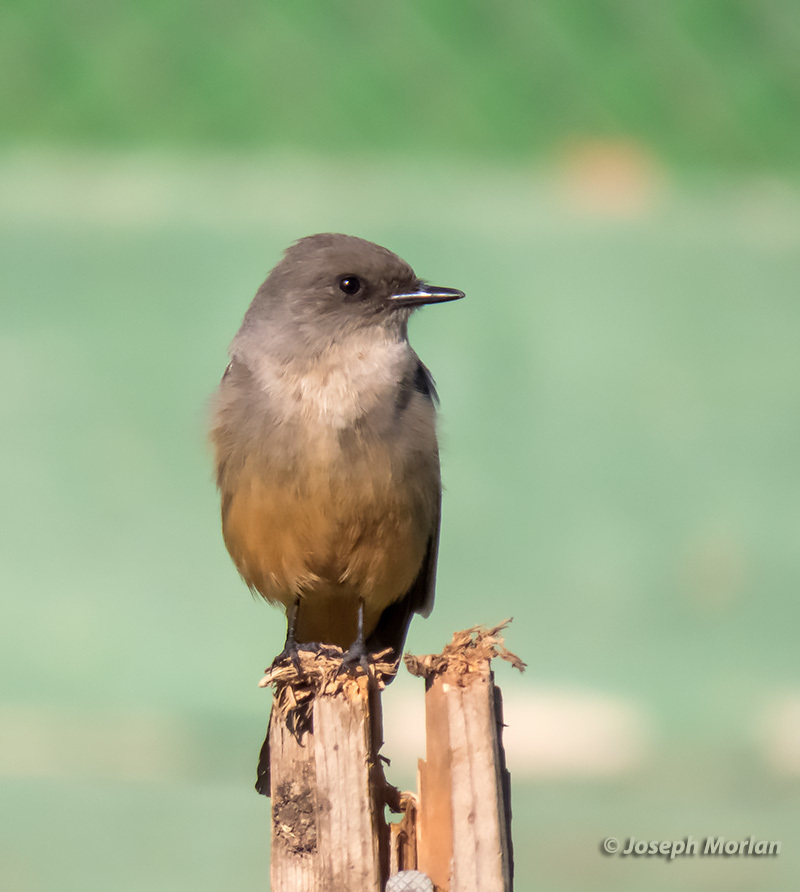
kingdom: Animalia
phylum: Chordata
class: Aves
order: Passeriformes
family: Tyrannidae
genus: Sayornis
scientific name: Sayornis saya
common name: Say's phoebe
